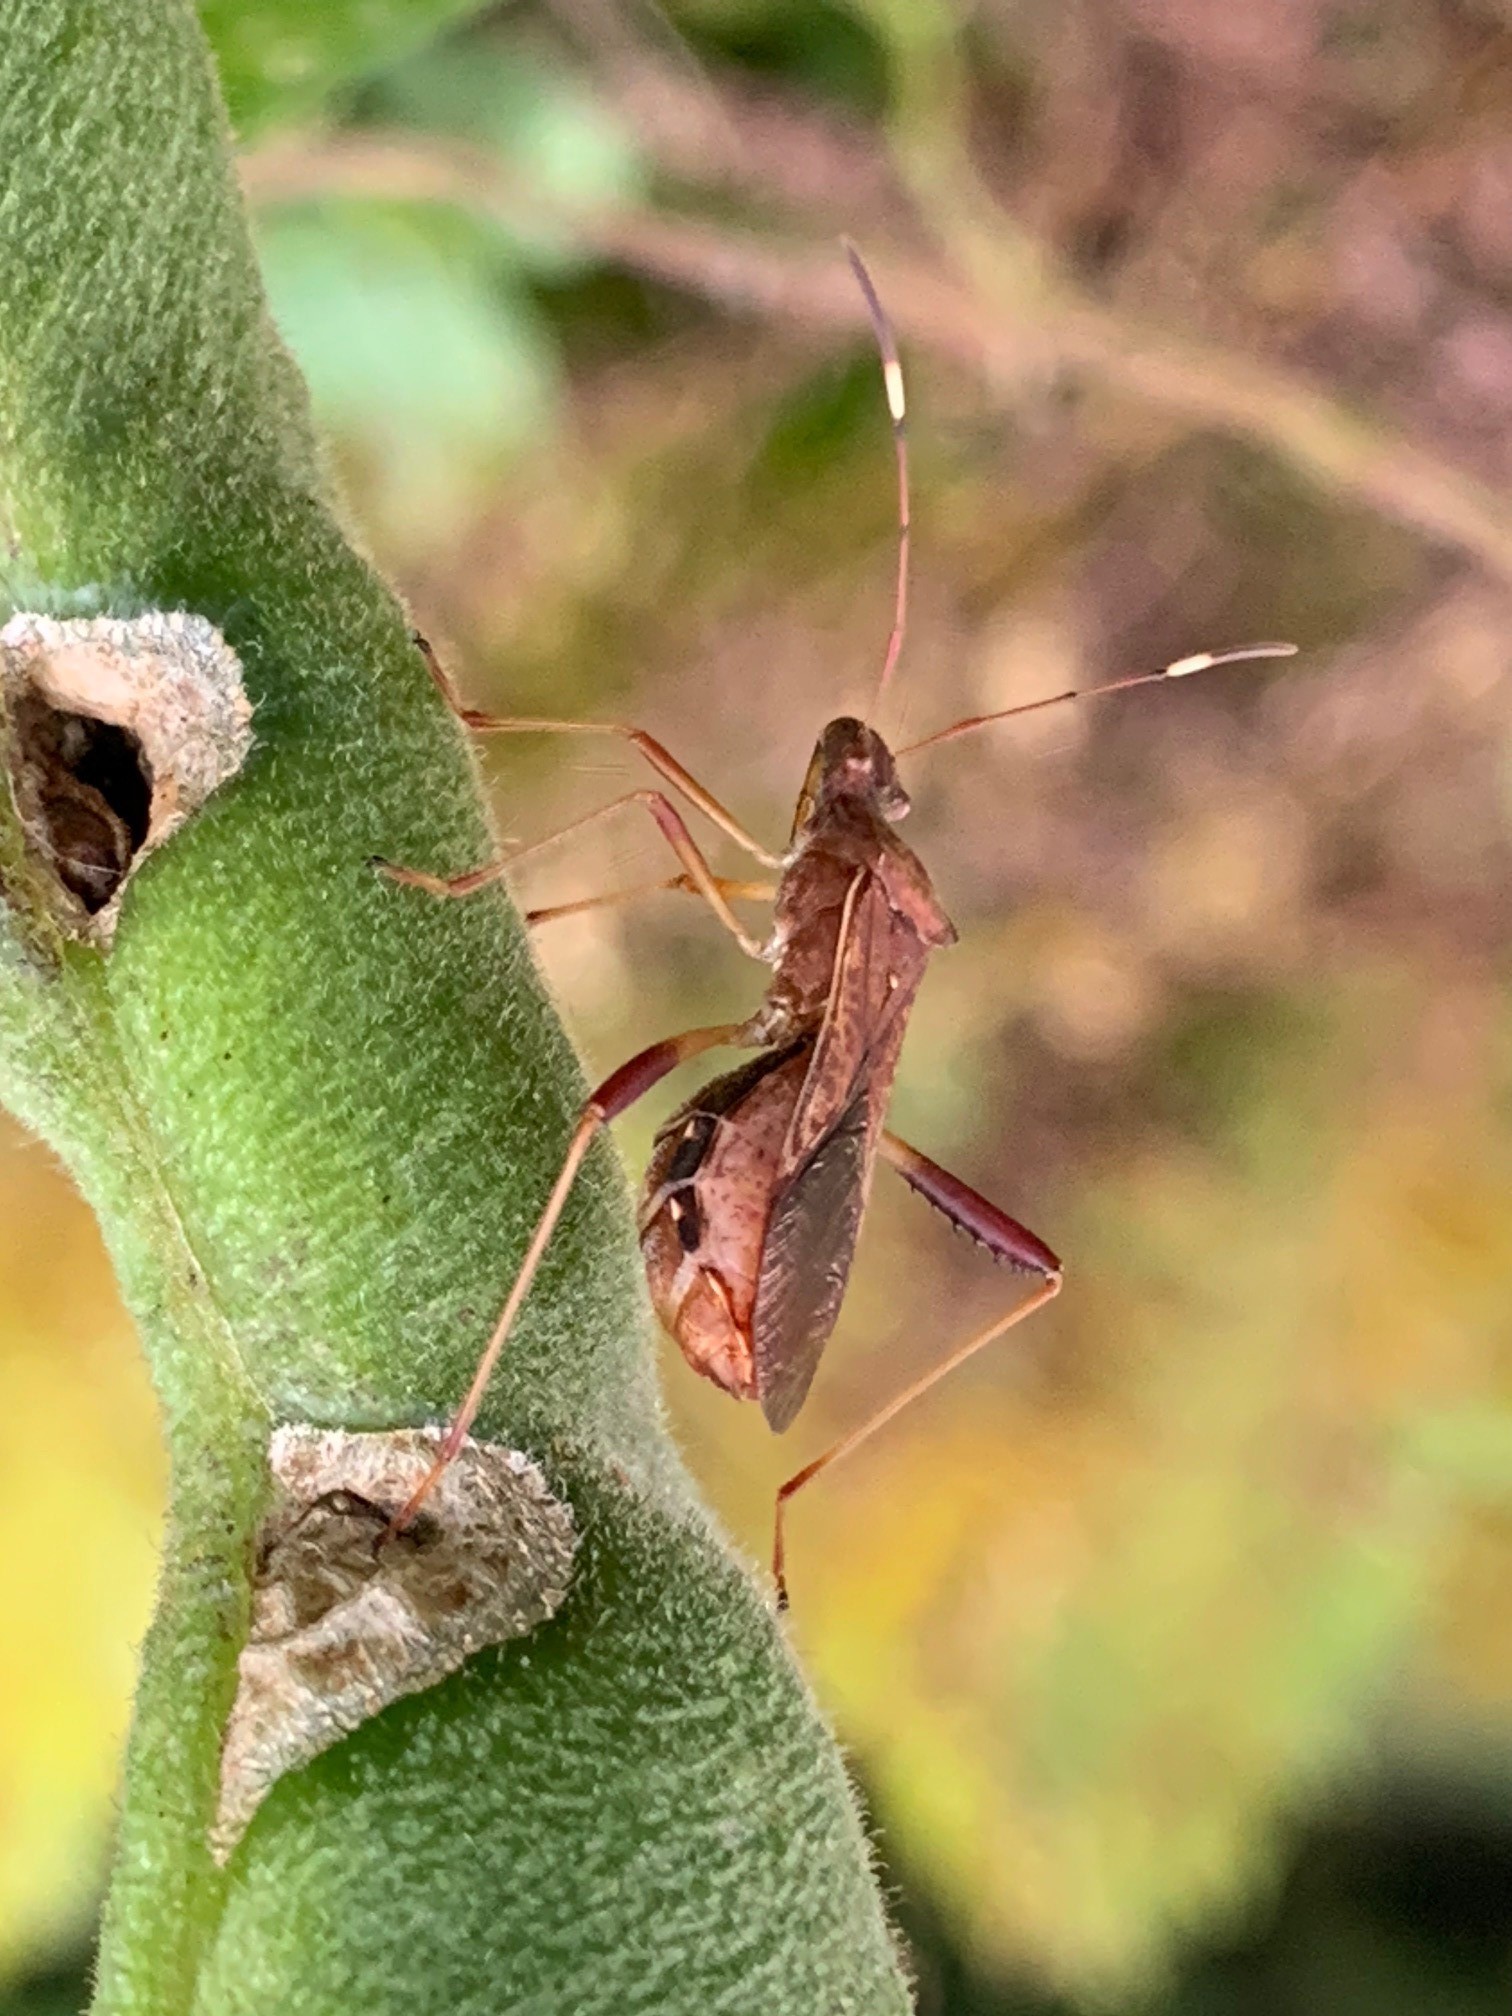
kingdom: Animalia
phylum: Arthropoda
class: Insecta
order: Hemiptera
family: Alydidae
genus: Megalotomus
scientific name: Megalotomus quinquespinosus
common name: Lupine bug
